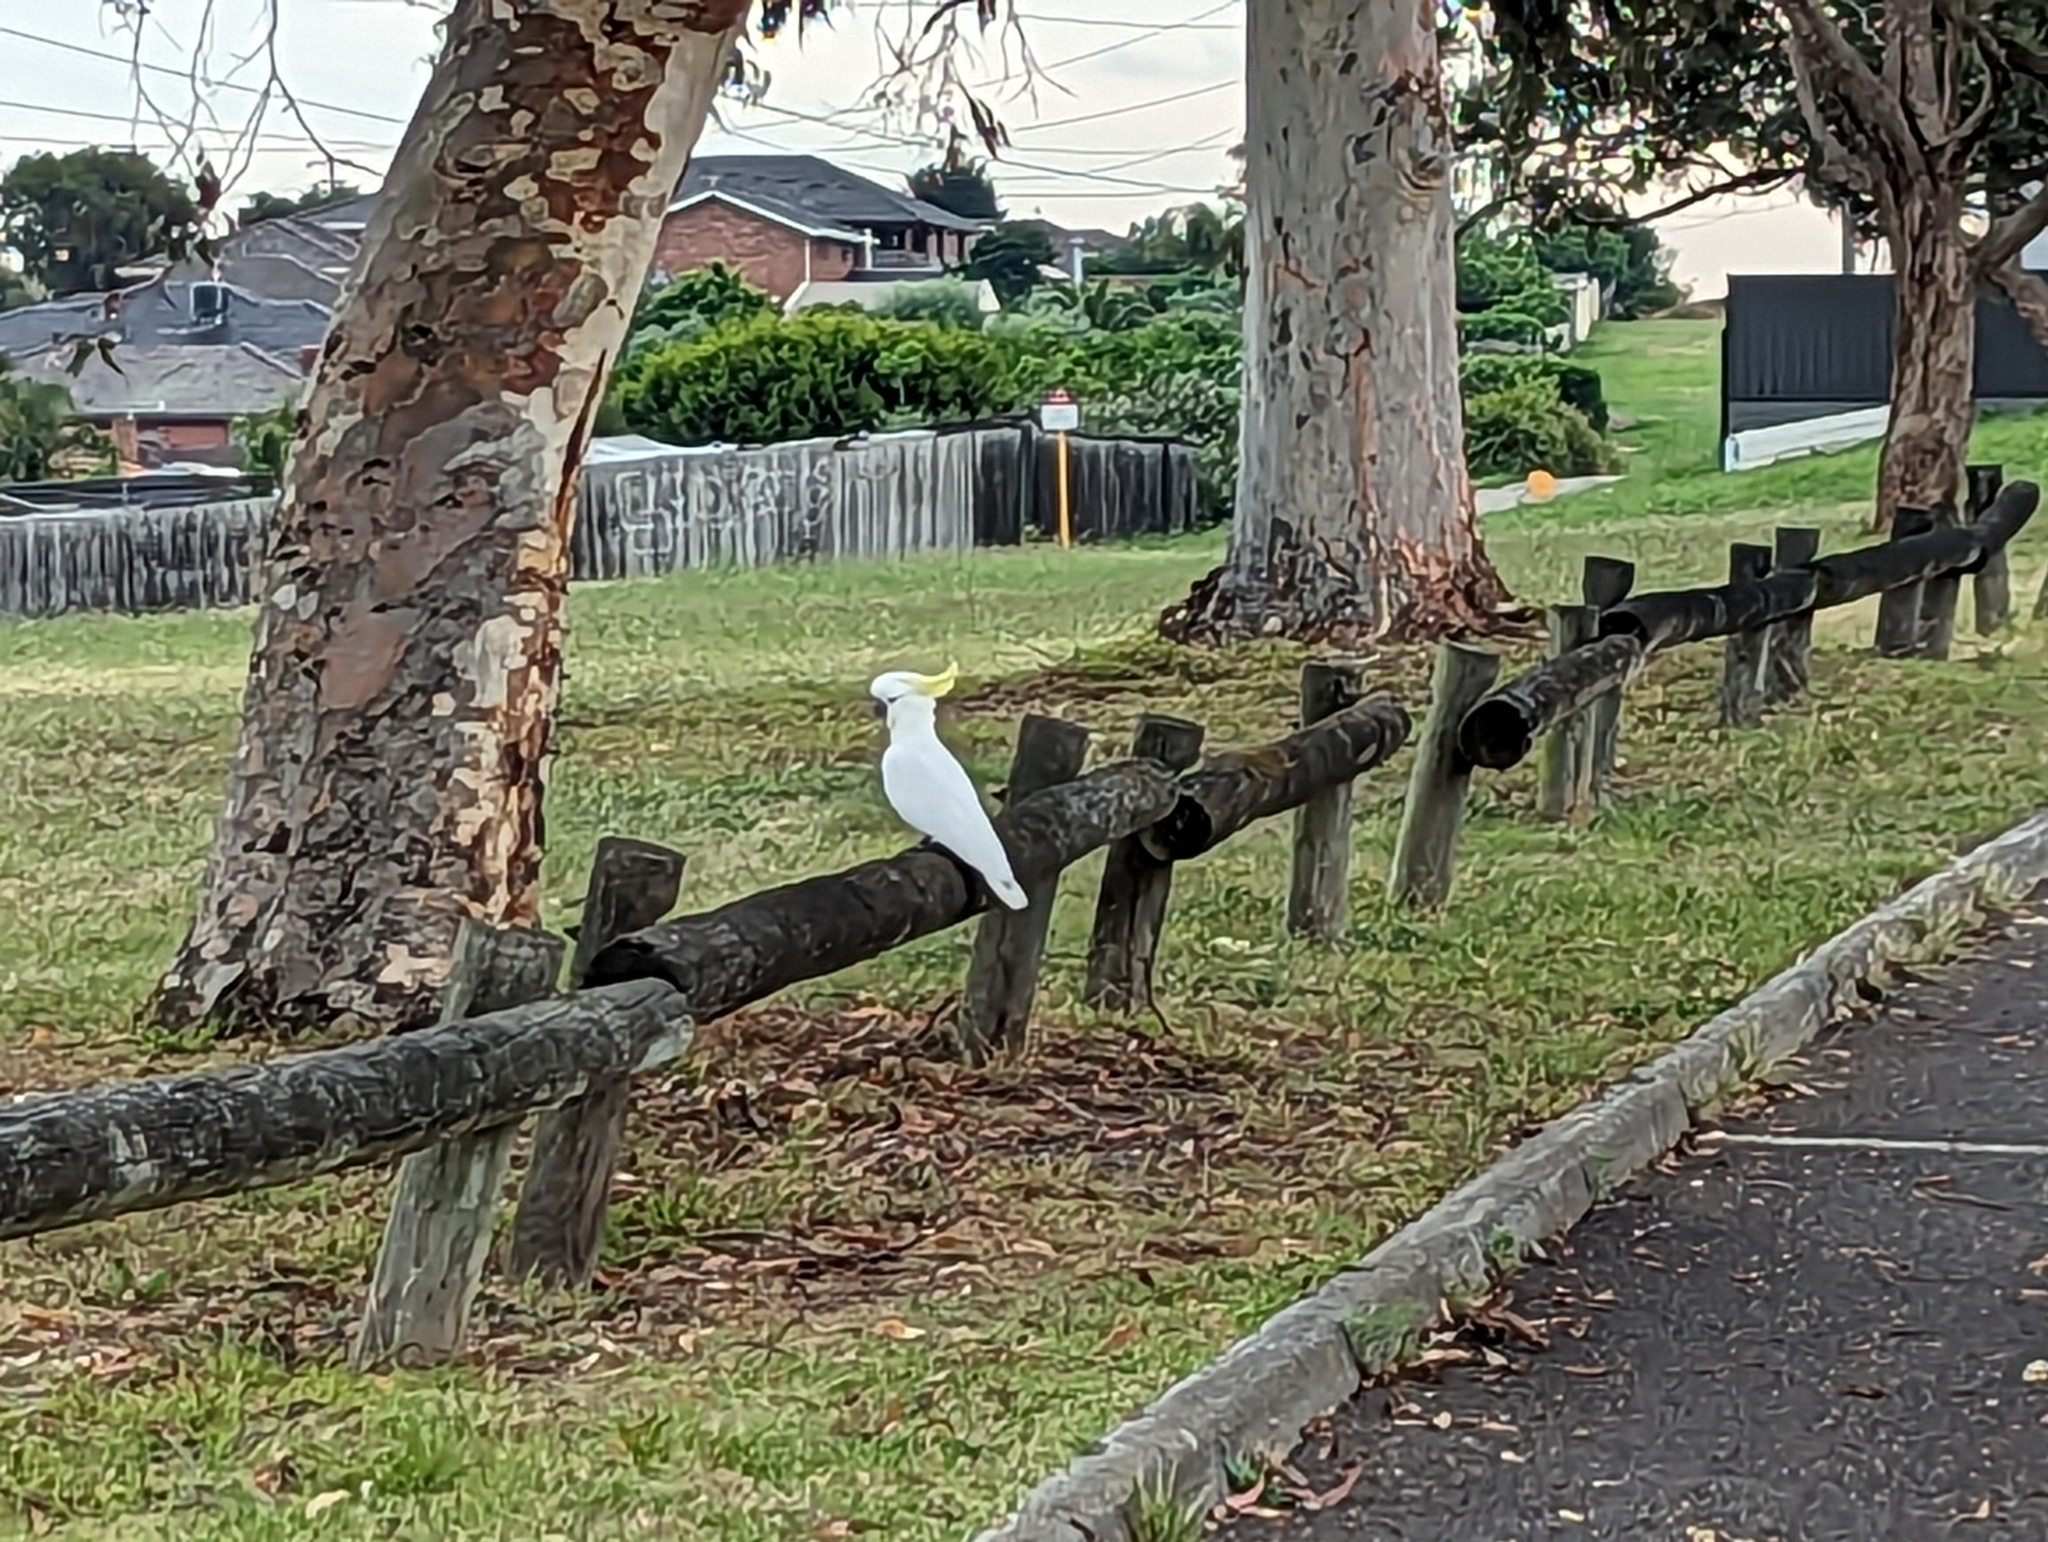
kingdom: Animalia
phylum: Chordata
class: Aves
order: Psittaciformes
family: Psittacidae
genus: Cacatua
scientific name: Cacatua galerita
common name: Sulphur-crested cockatoo
